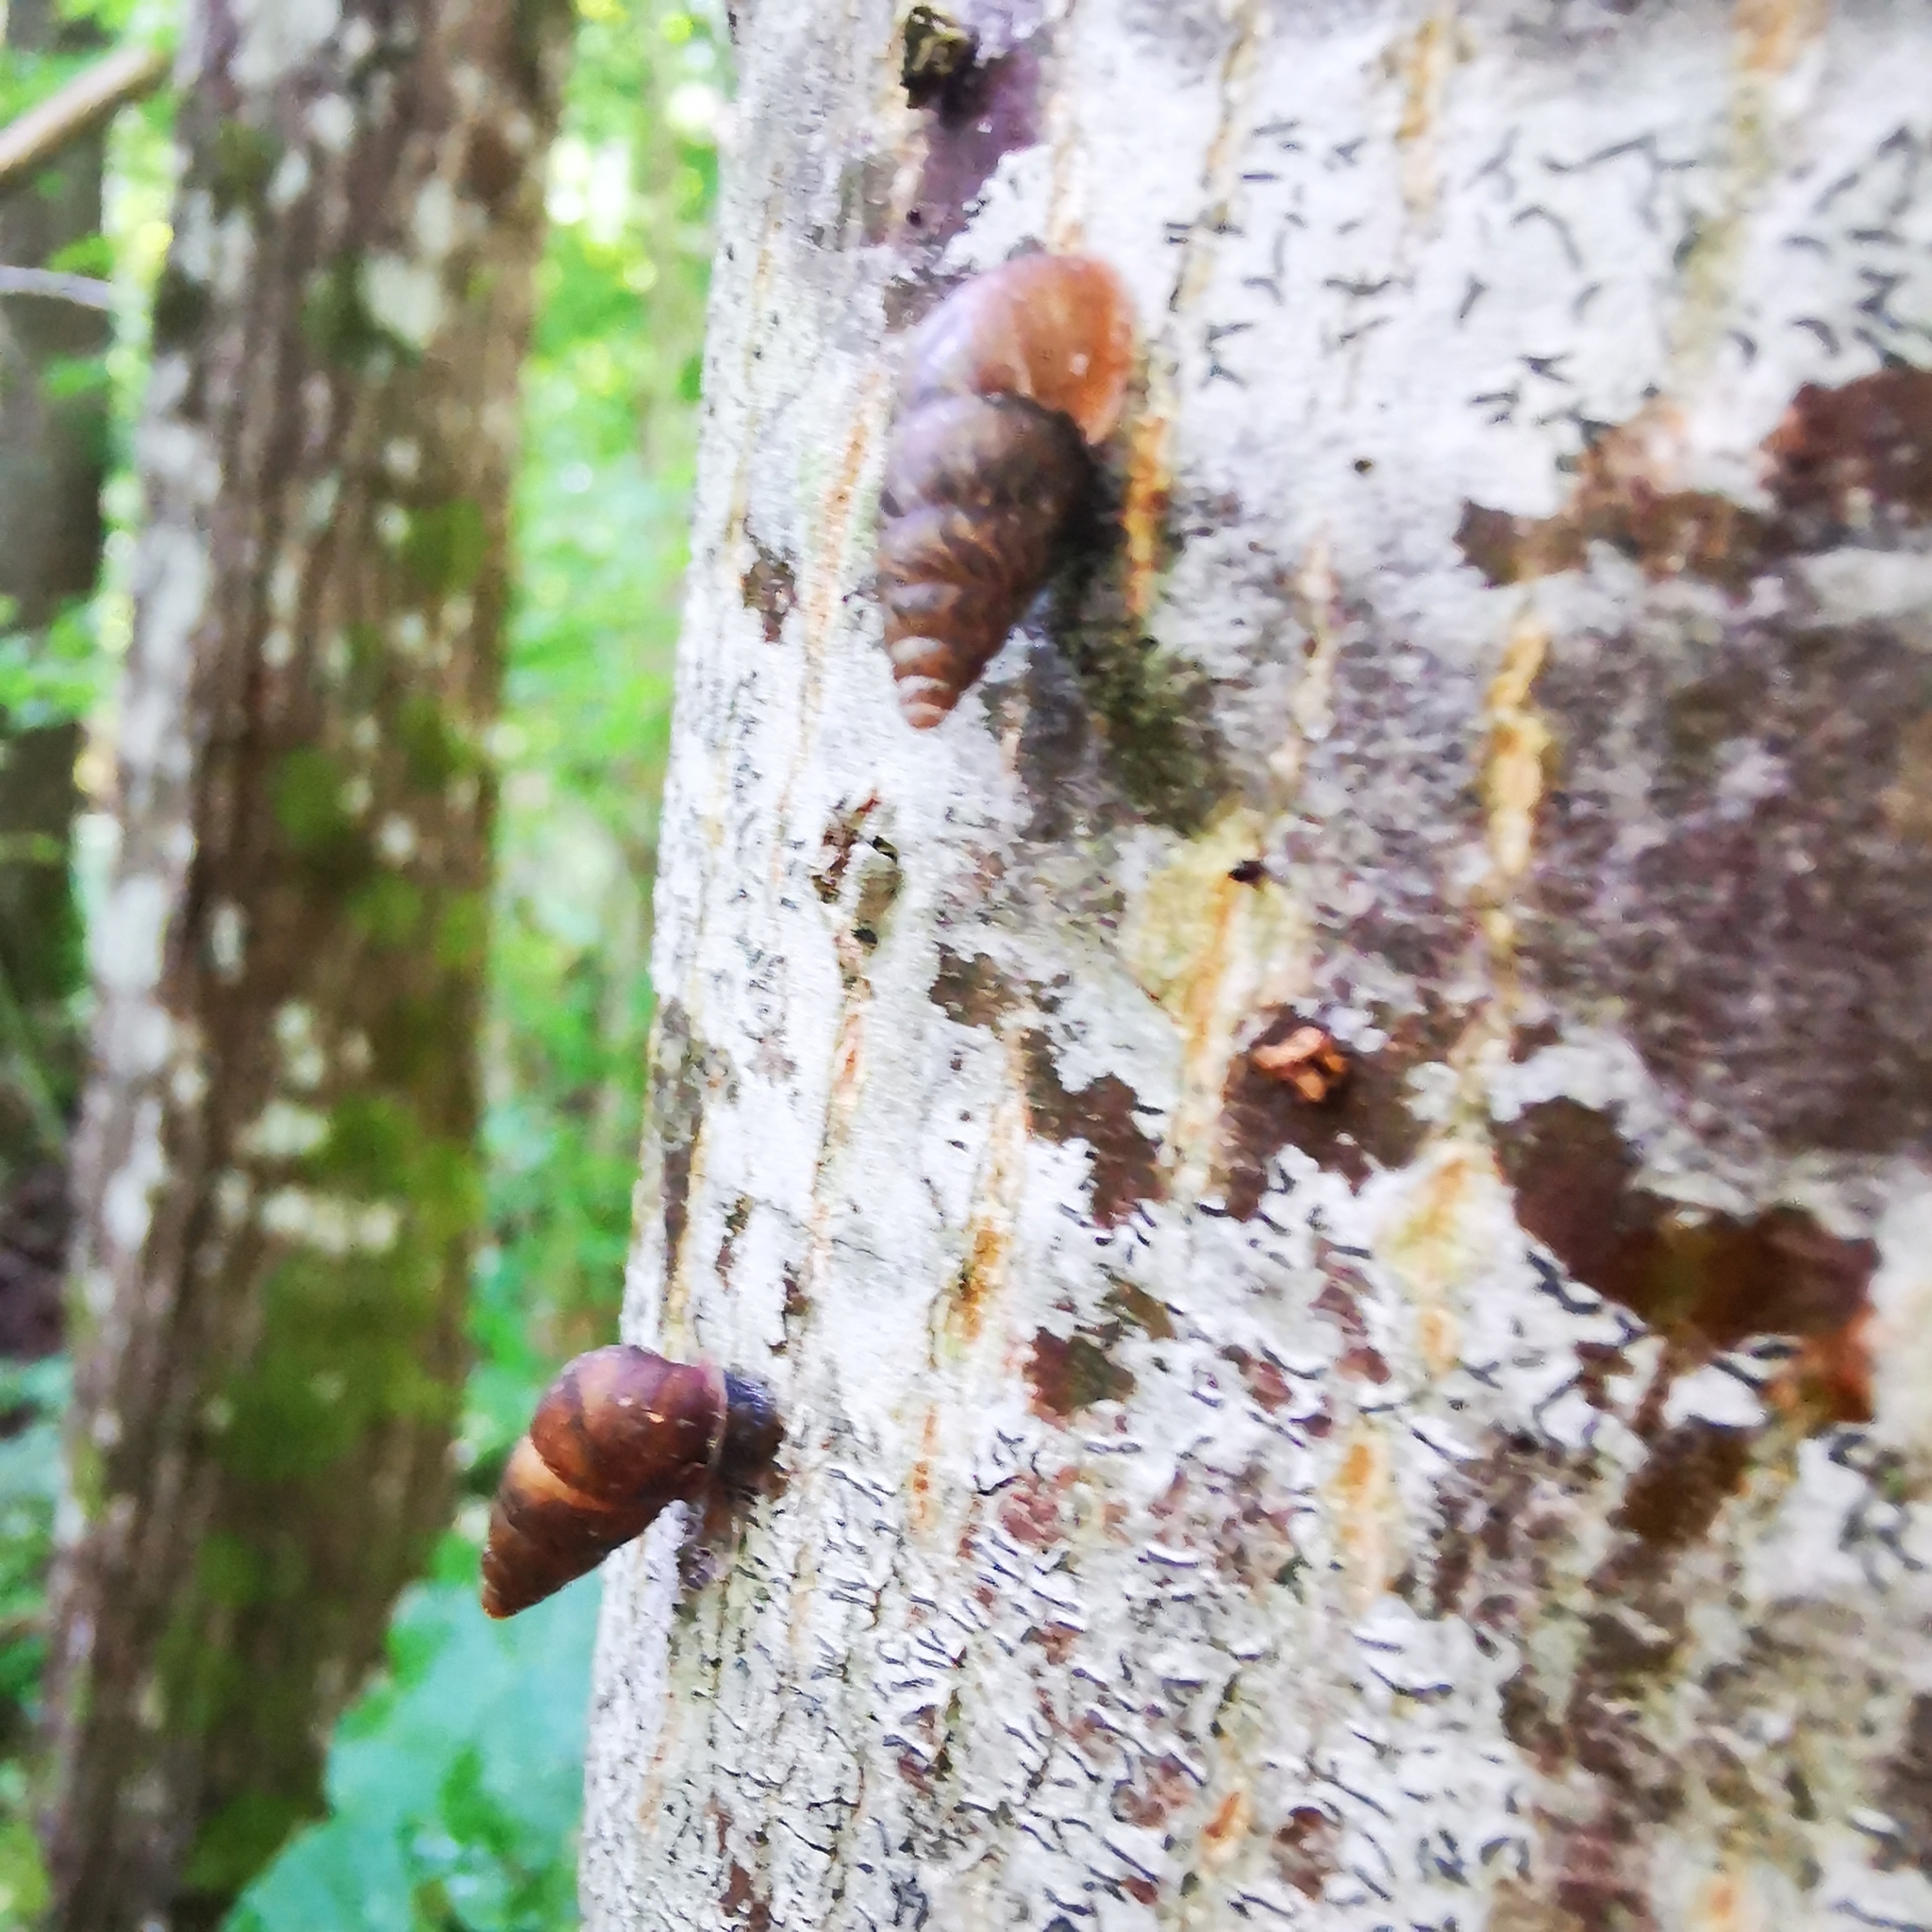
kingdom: Animalia
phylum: Mollusca
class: Gastropoda
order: Stylommatophora
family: Enidae
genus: Ena
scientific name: Ena montana
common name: Mountain bulin
